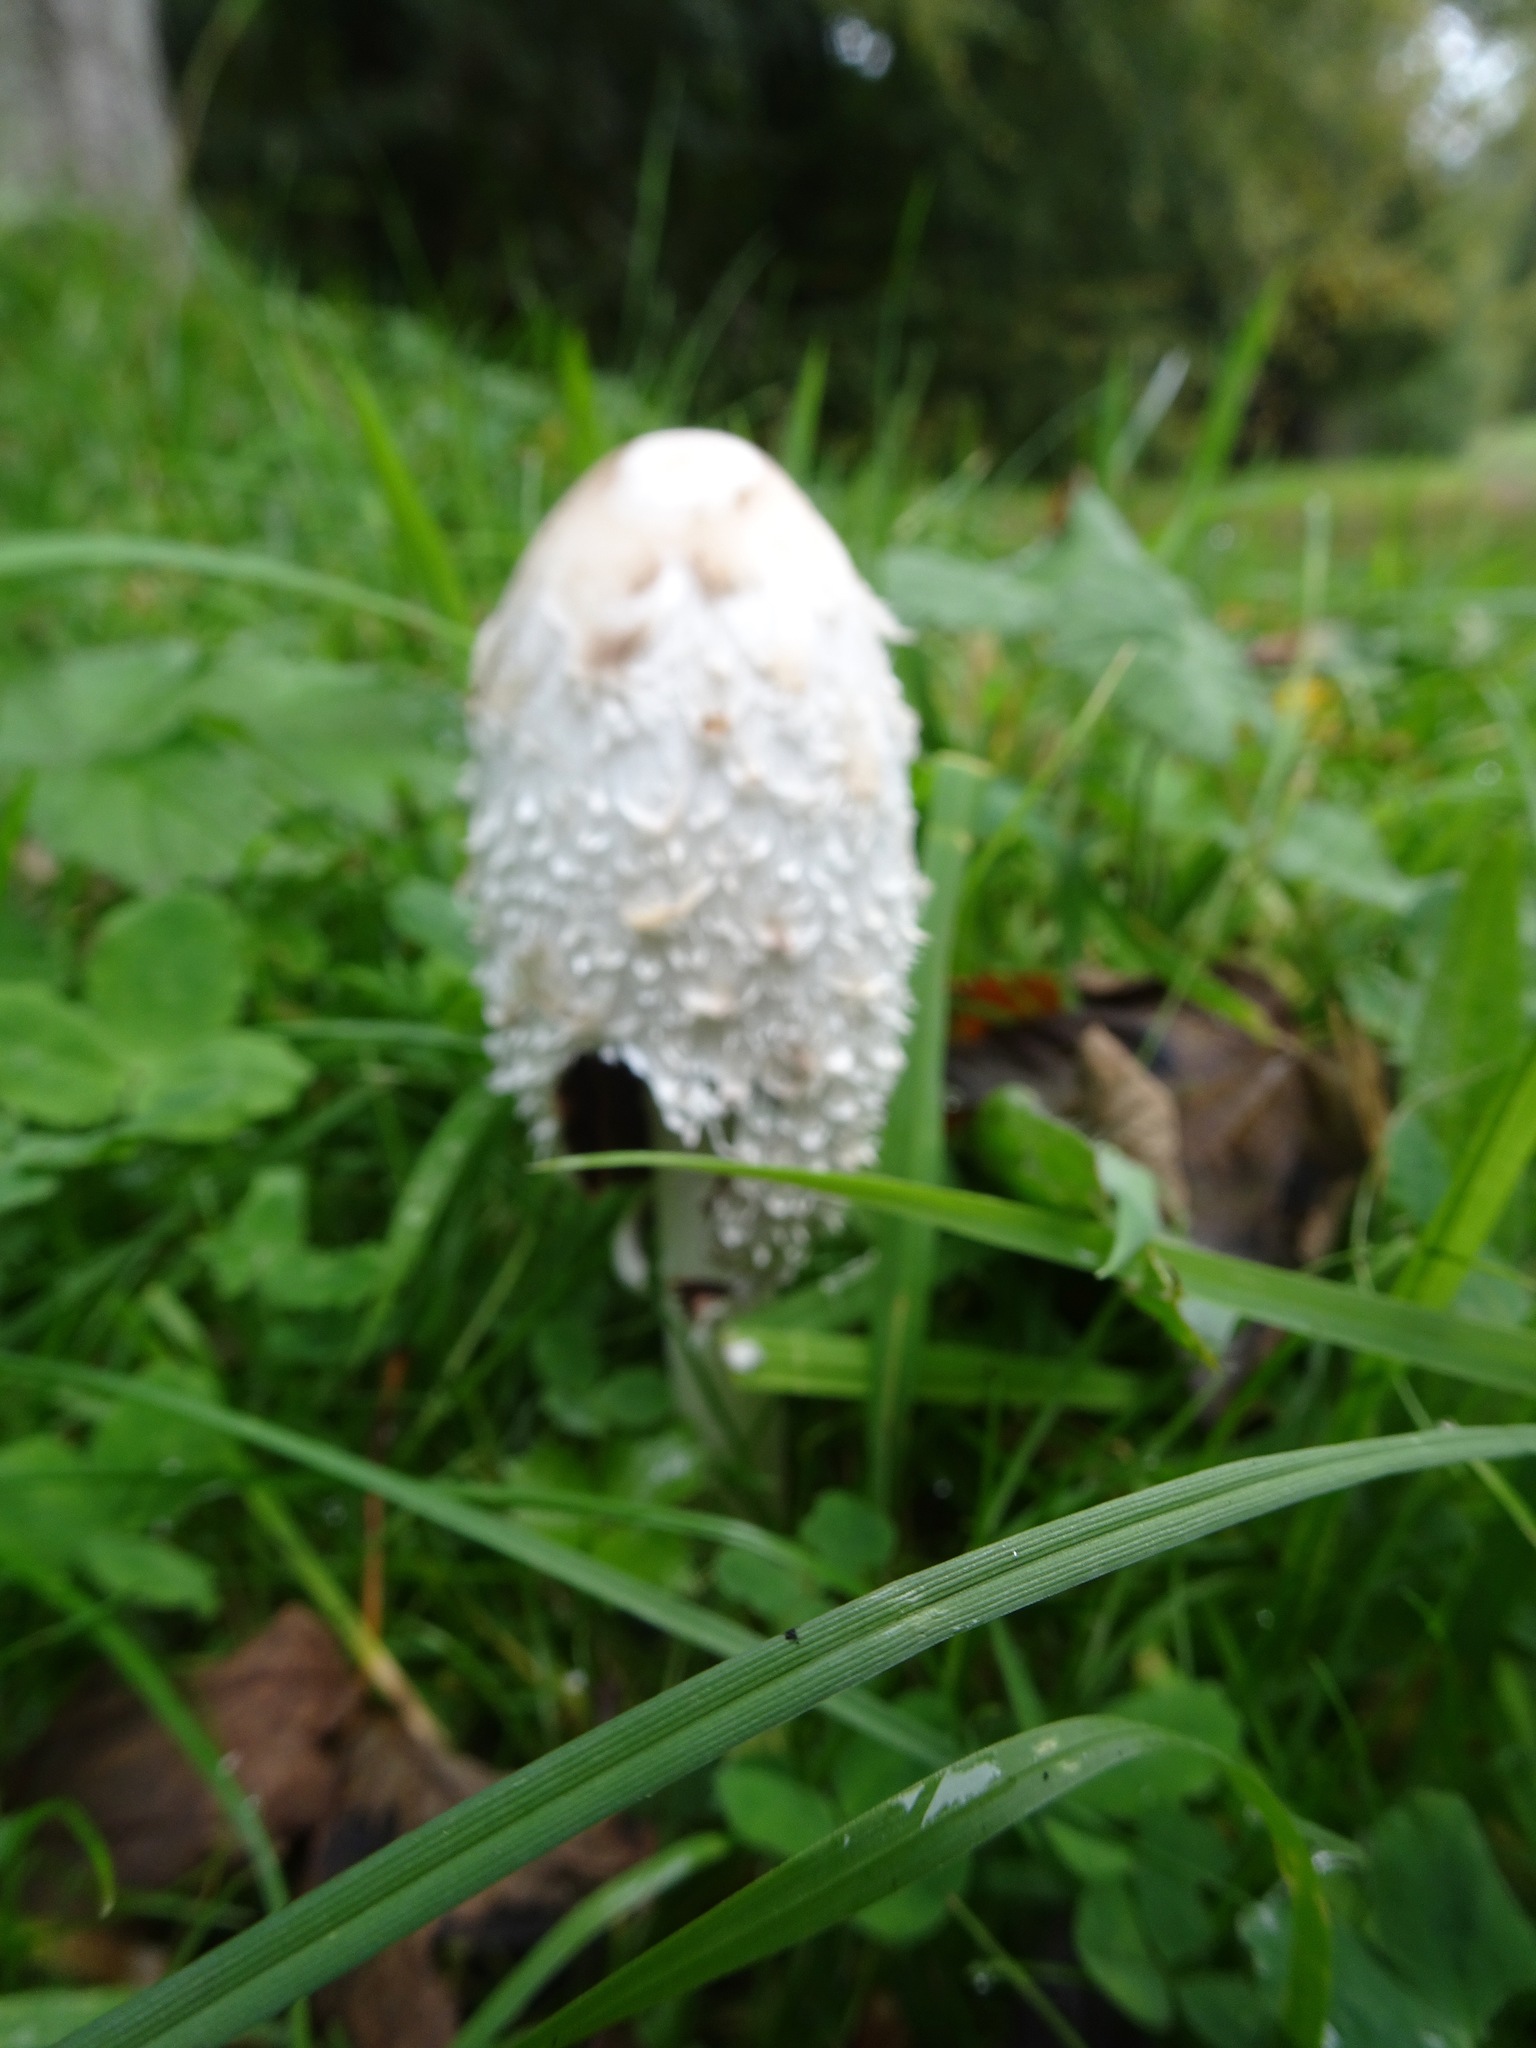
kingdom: Fungi
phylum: Basidiomycota
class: Agaricomycetes
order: Agaricales
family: Agaricaceae
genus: Coprinus
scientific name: Coprinus comatus
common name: Lawyer's wig
